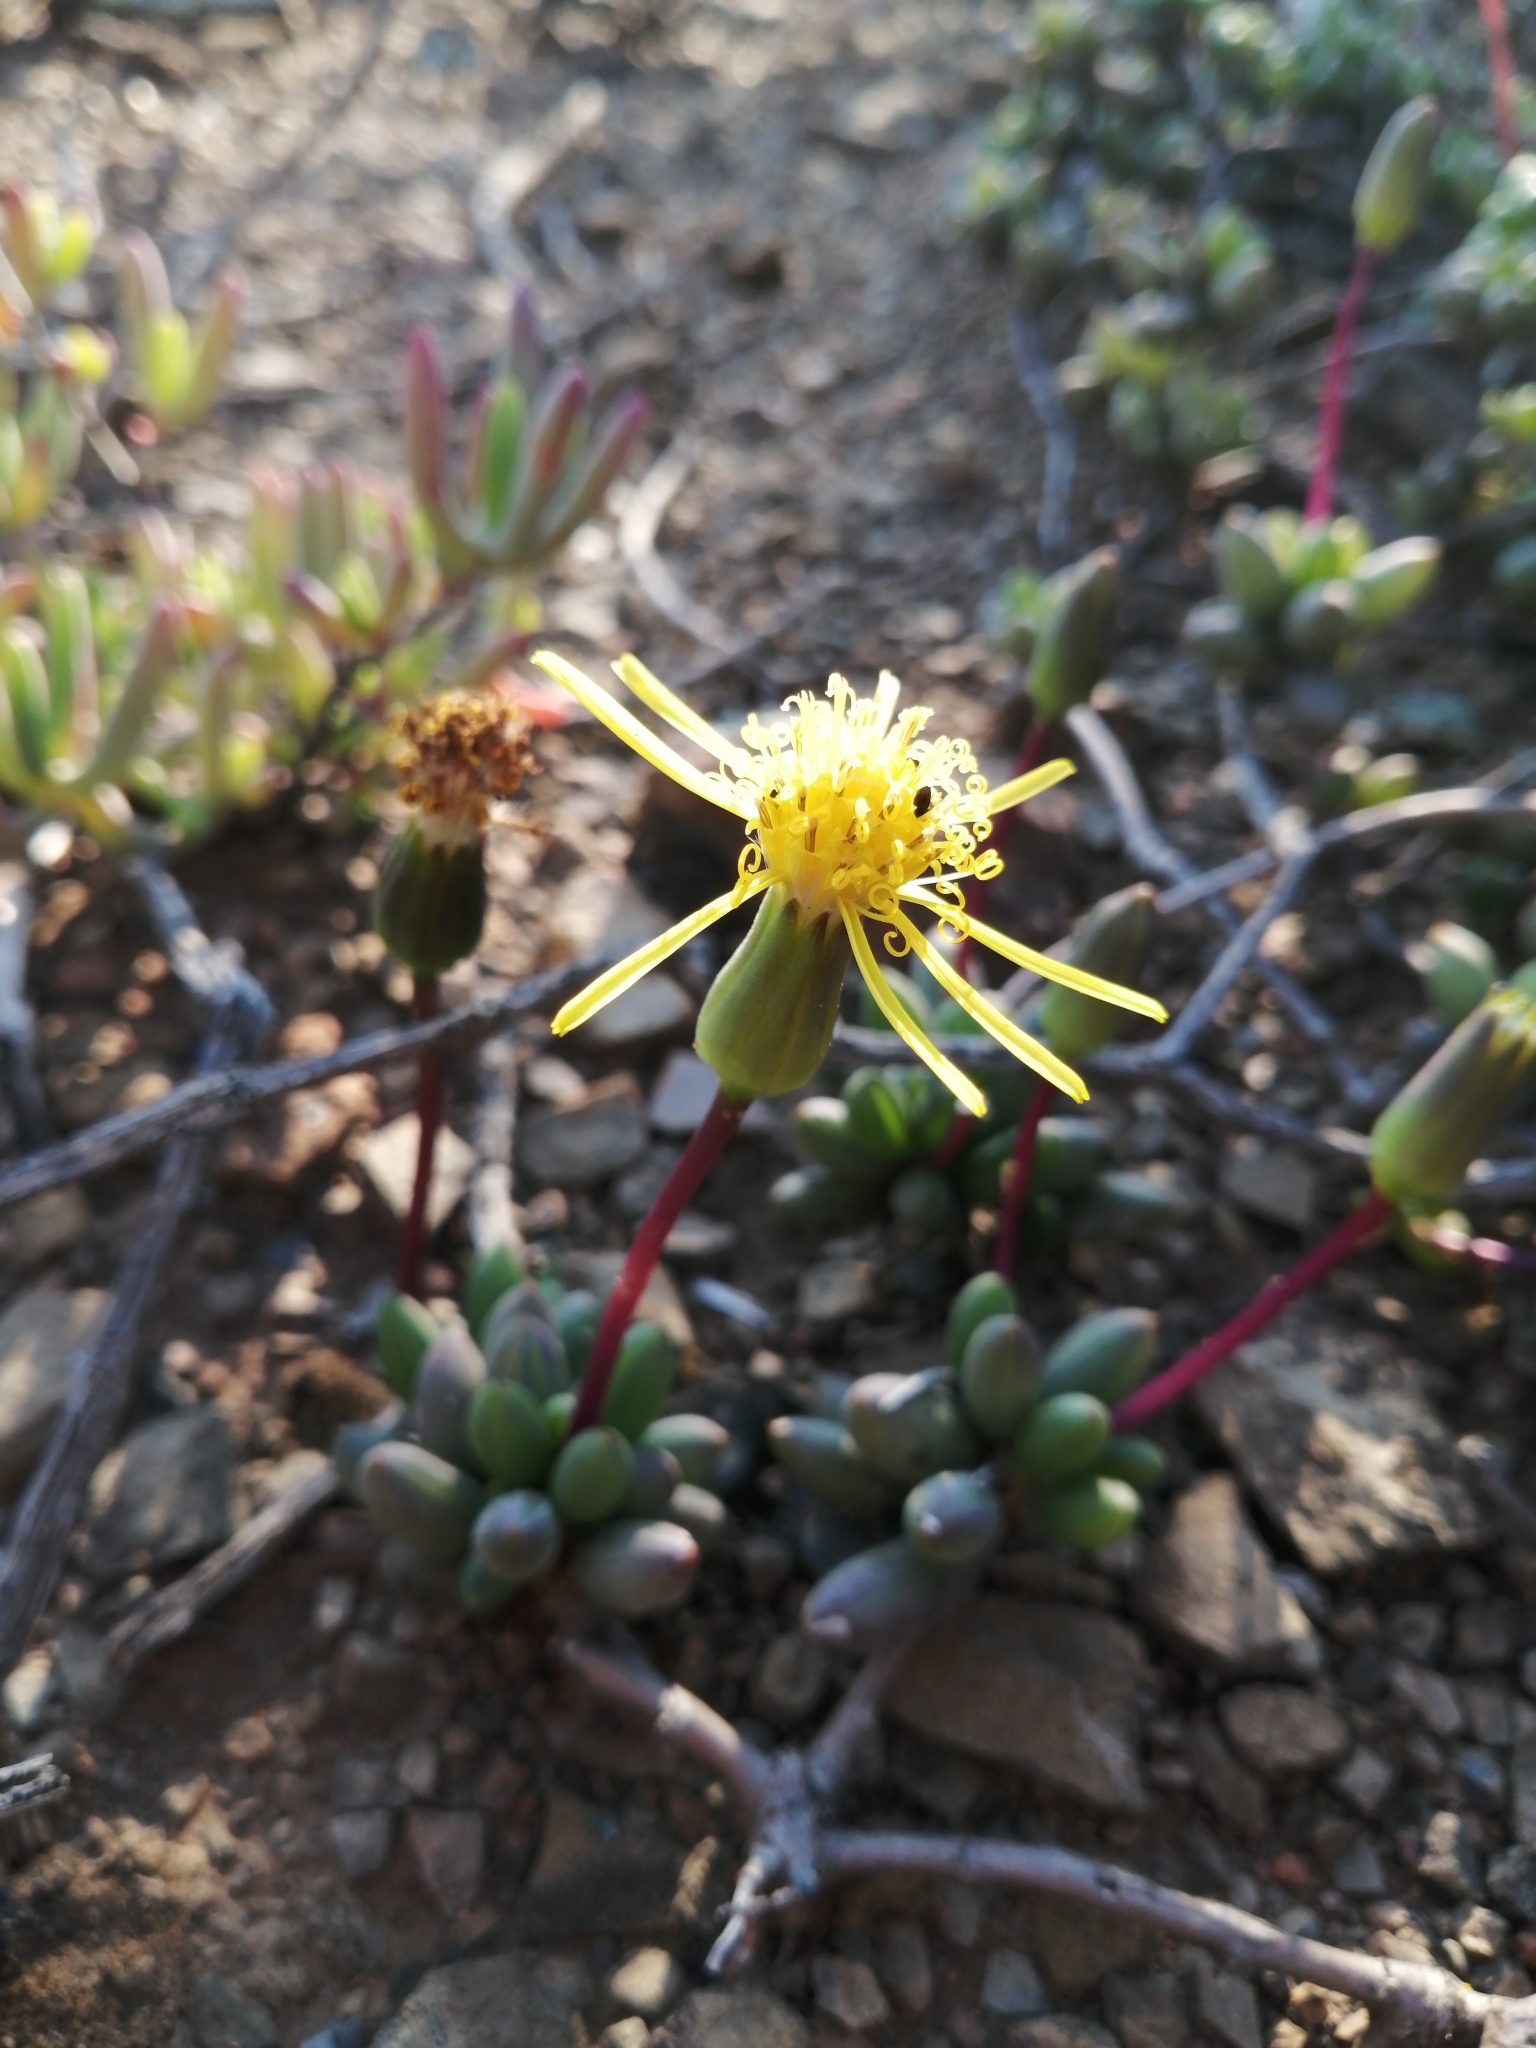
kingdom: Plantae
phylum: Tracheophyta
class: Magnoliopsida
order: Asterales
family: Asteraceae
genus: Senecio
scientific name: Senecio abbreviatus
